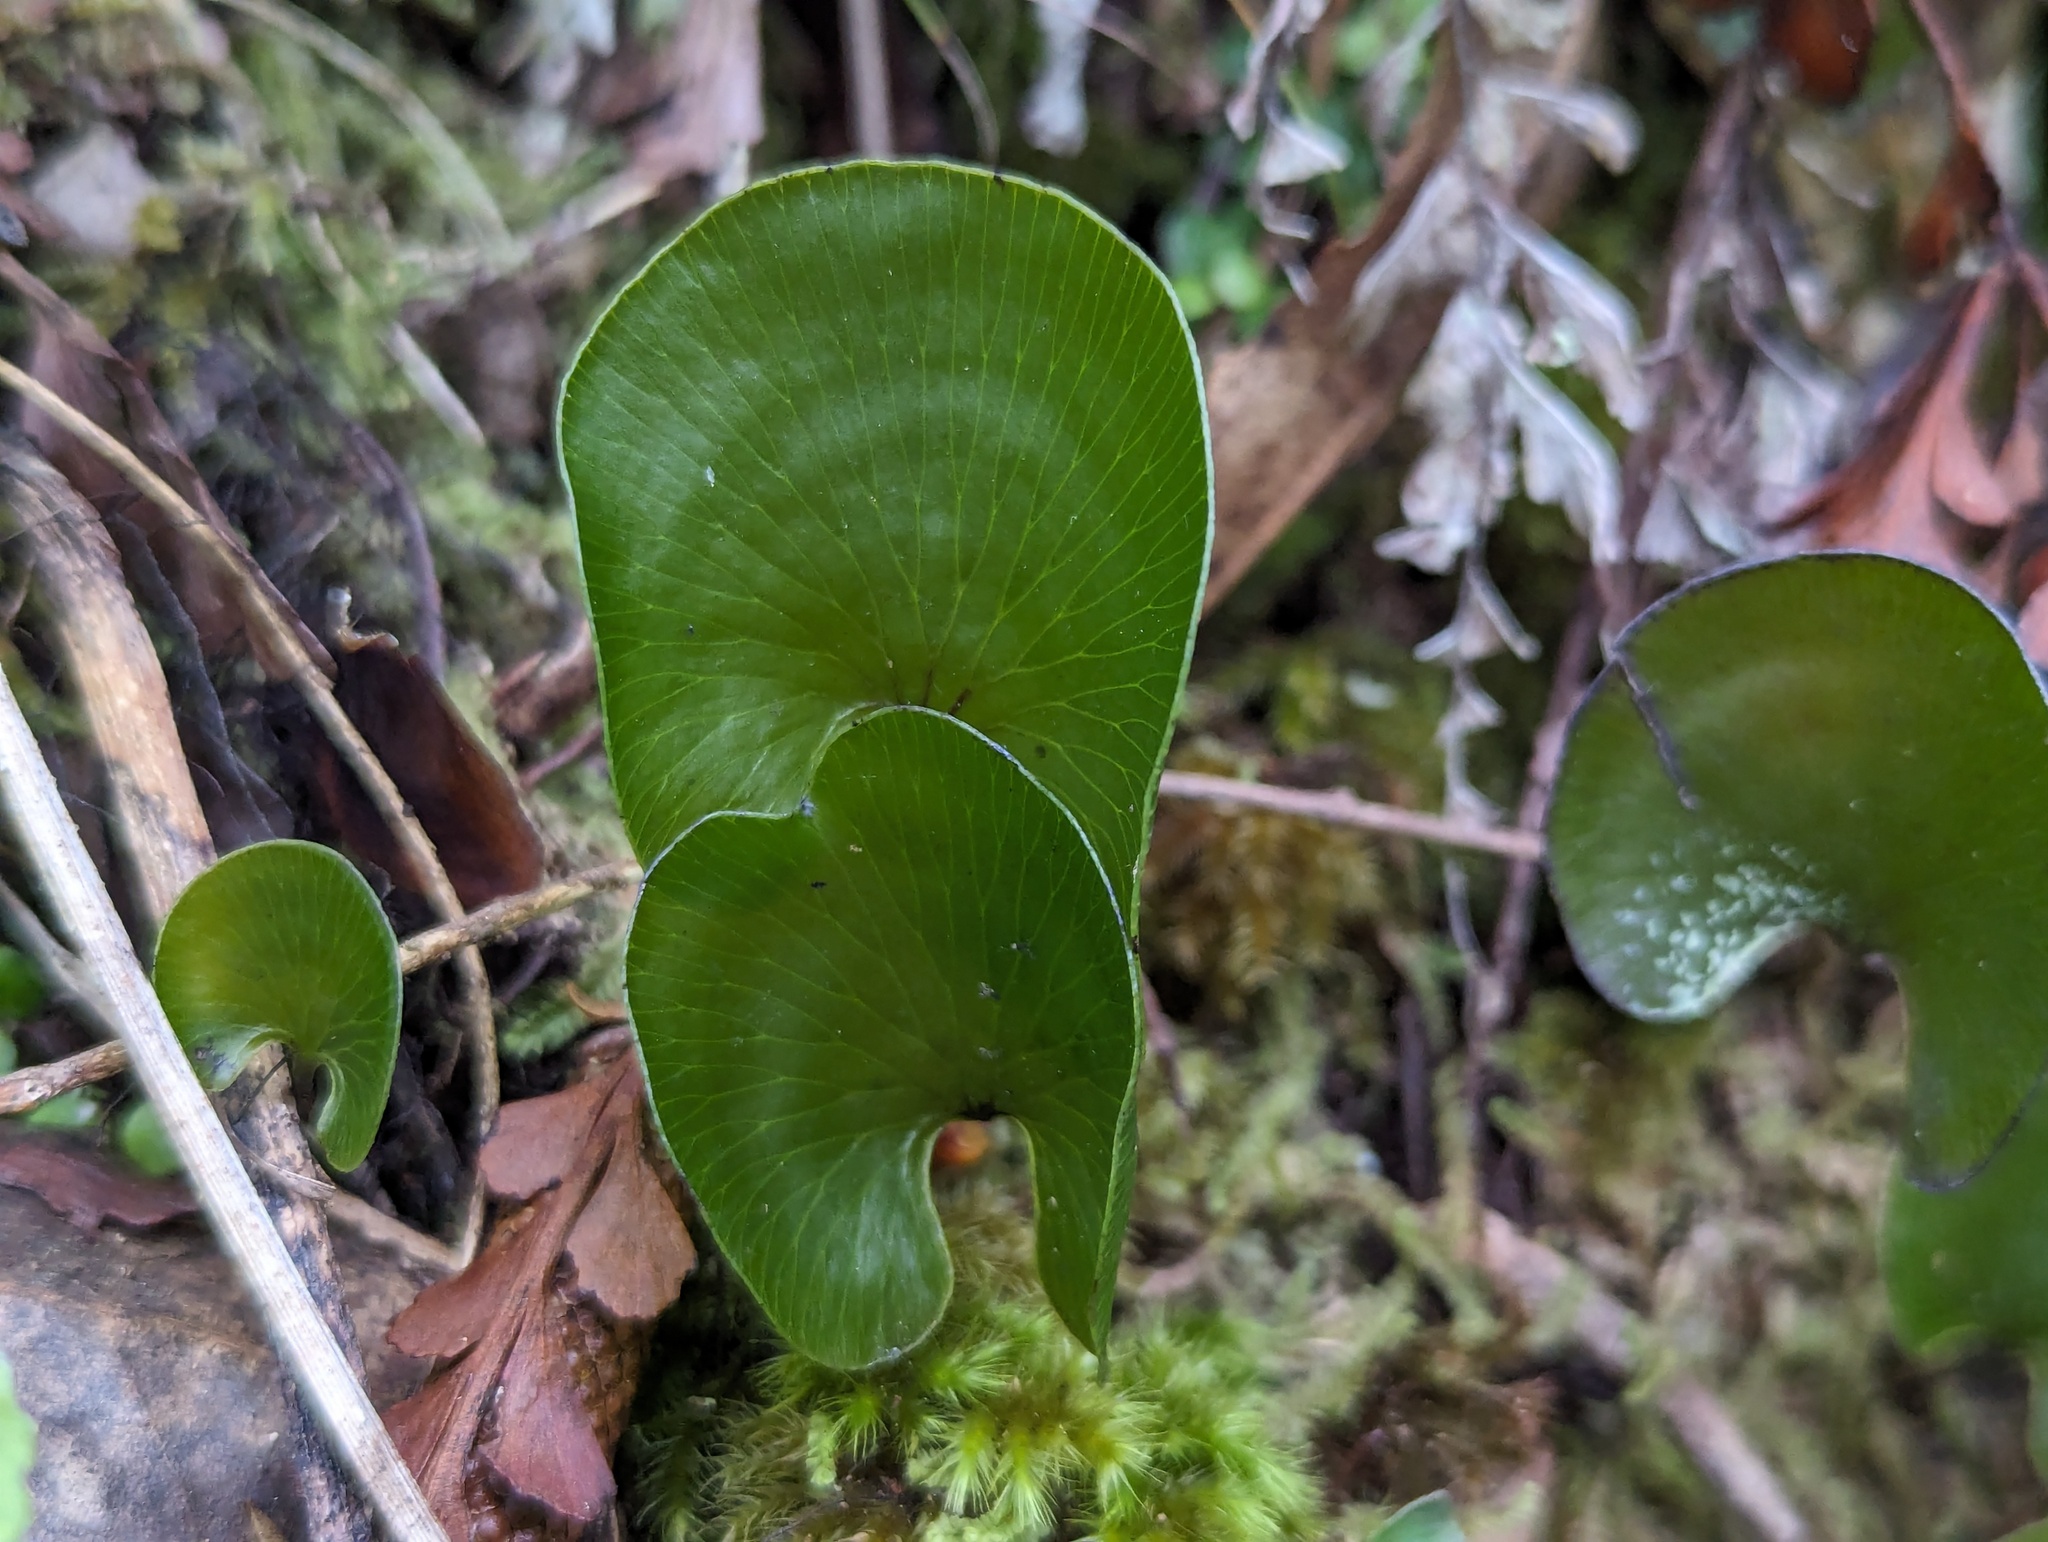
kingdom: Plantae
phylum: Tracheophyta
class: Polypodiopsida
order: Hymenophyllales
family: Hymenophyllaceae
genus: Hymenophyllum
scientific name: Hymenophyllum nephrophyllum
